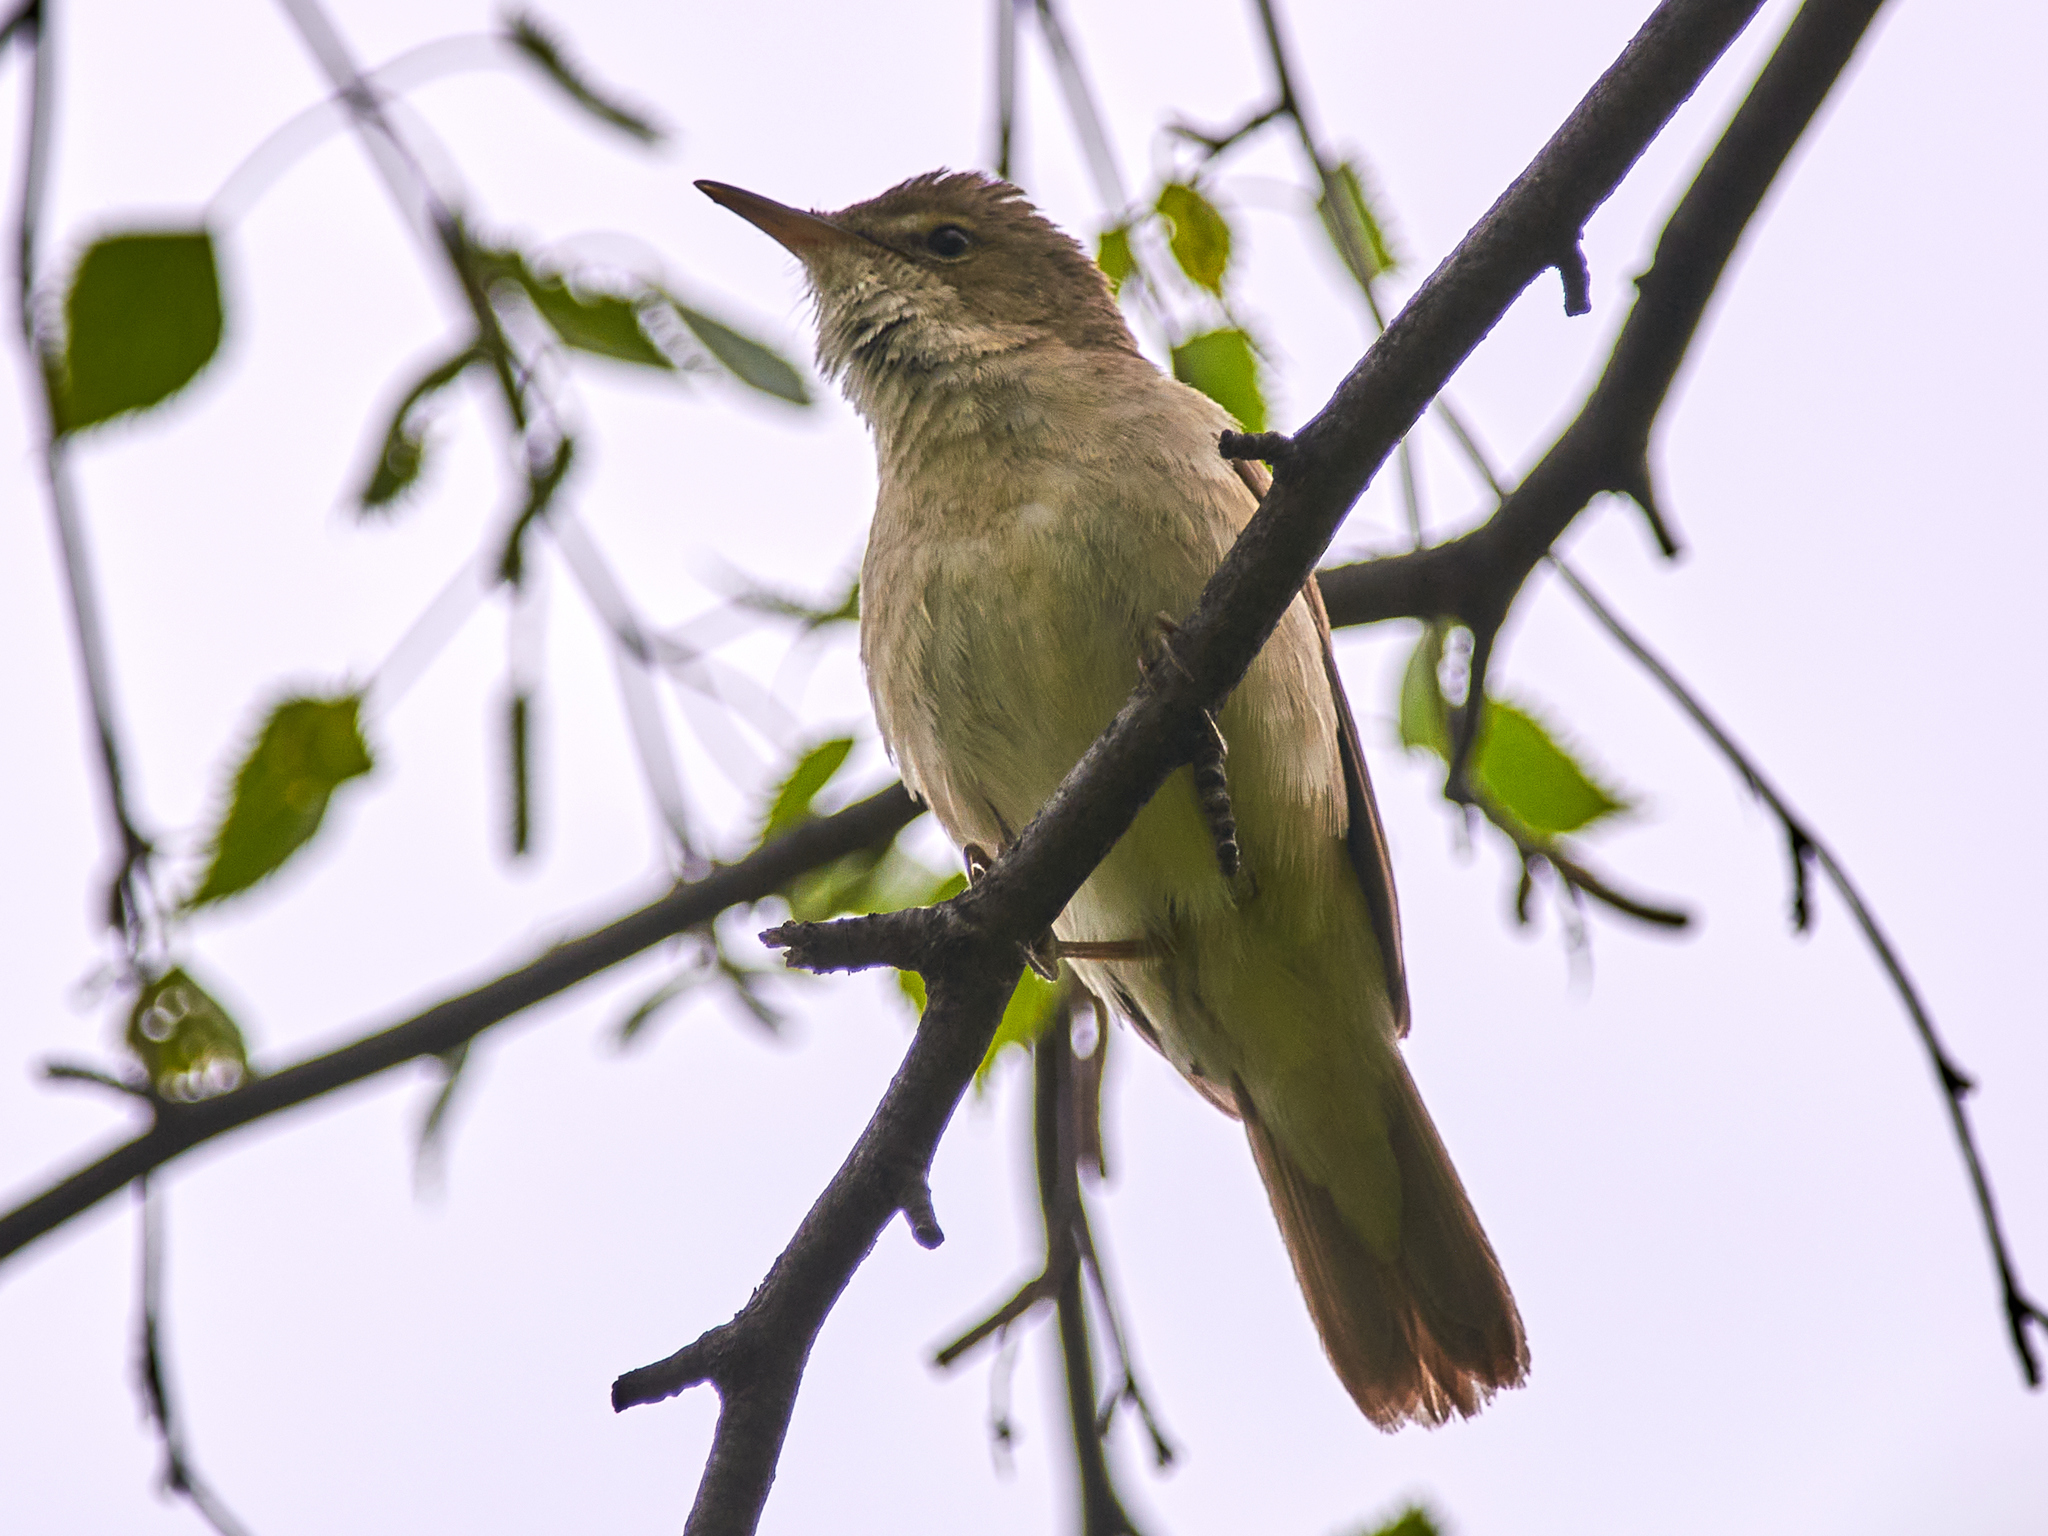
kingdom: Animalia
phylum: Chordata
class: Aves
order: Passeriformes
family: Acrocephalidae
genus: Acrocephalus
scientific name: Acrocephalus dumetorum
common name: Blyth's reed warbler
